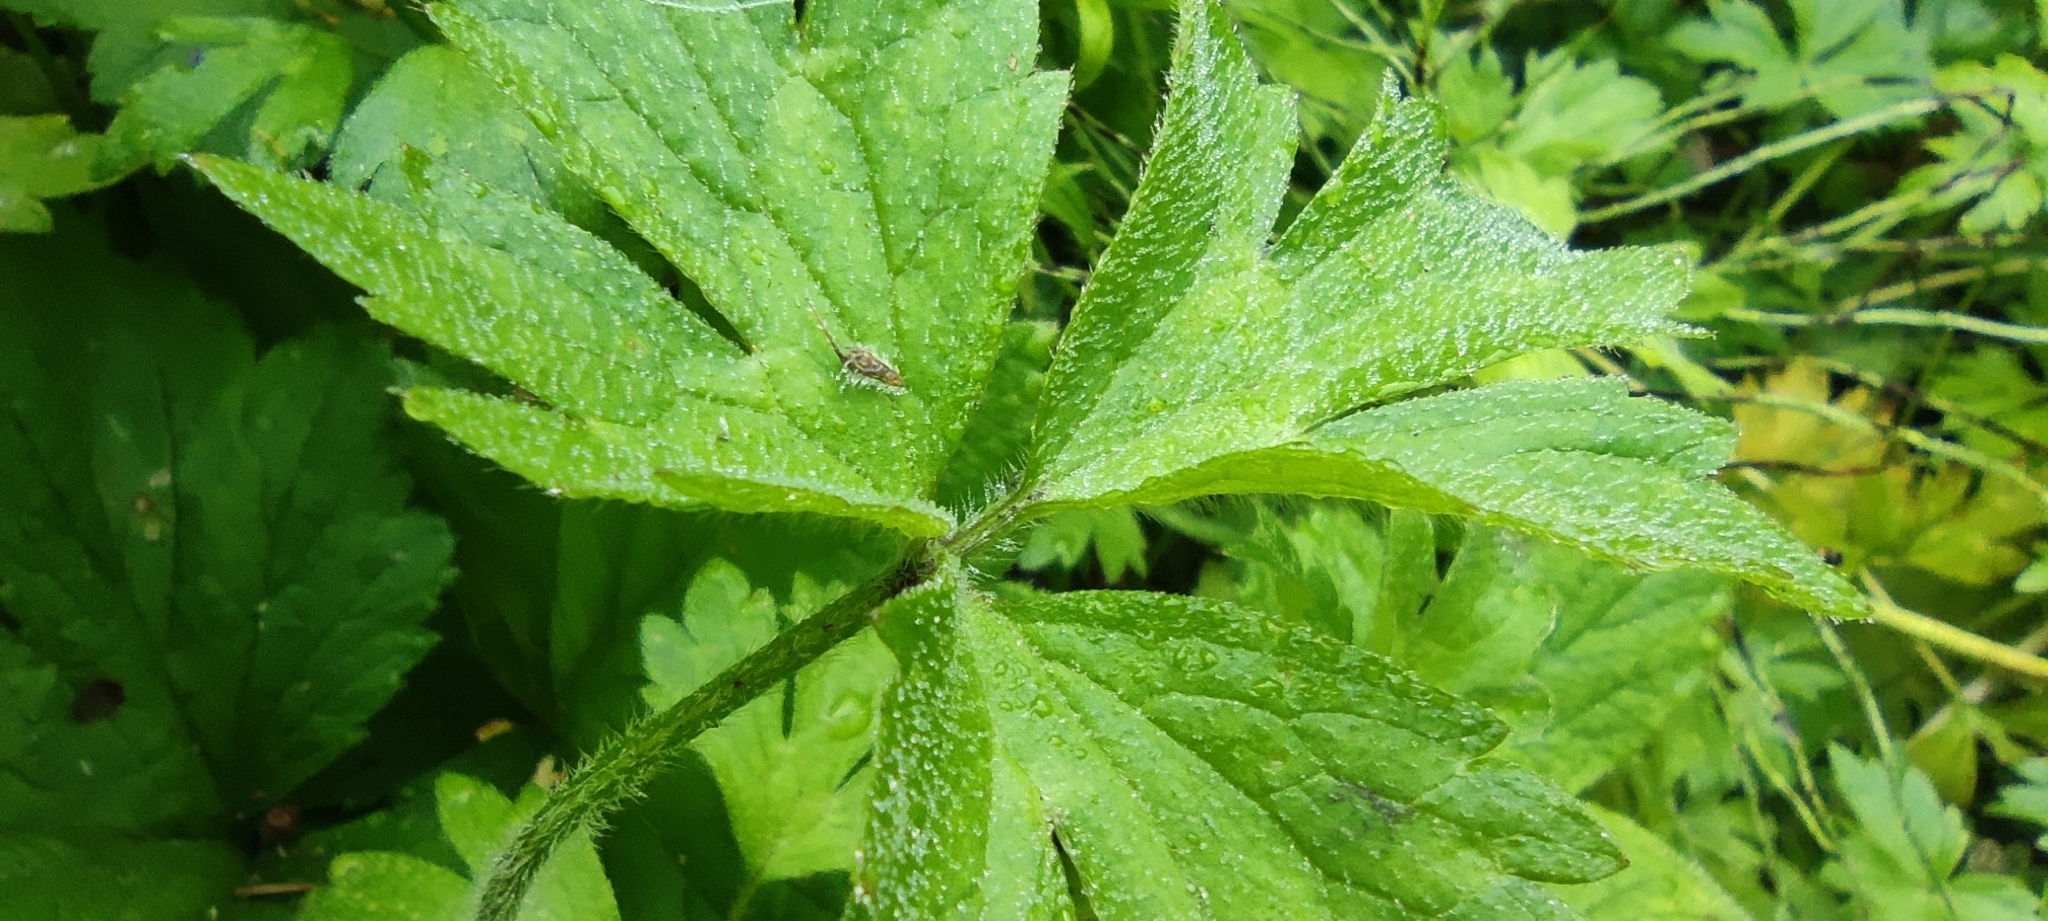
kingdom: Plantae
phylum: Tracheophyta
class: Magnoliopsida
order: Ranunculales
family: Ranunculaceae
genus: Ranunculus
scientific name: Ranunculus acris
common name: Meadow buttercup
